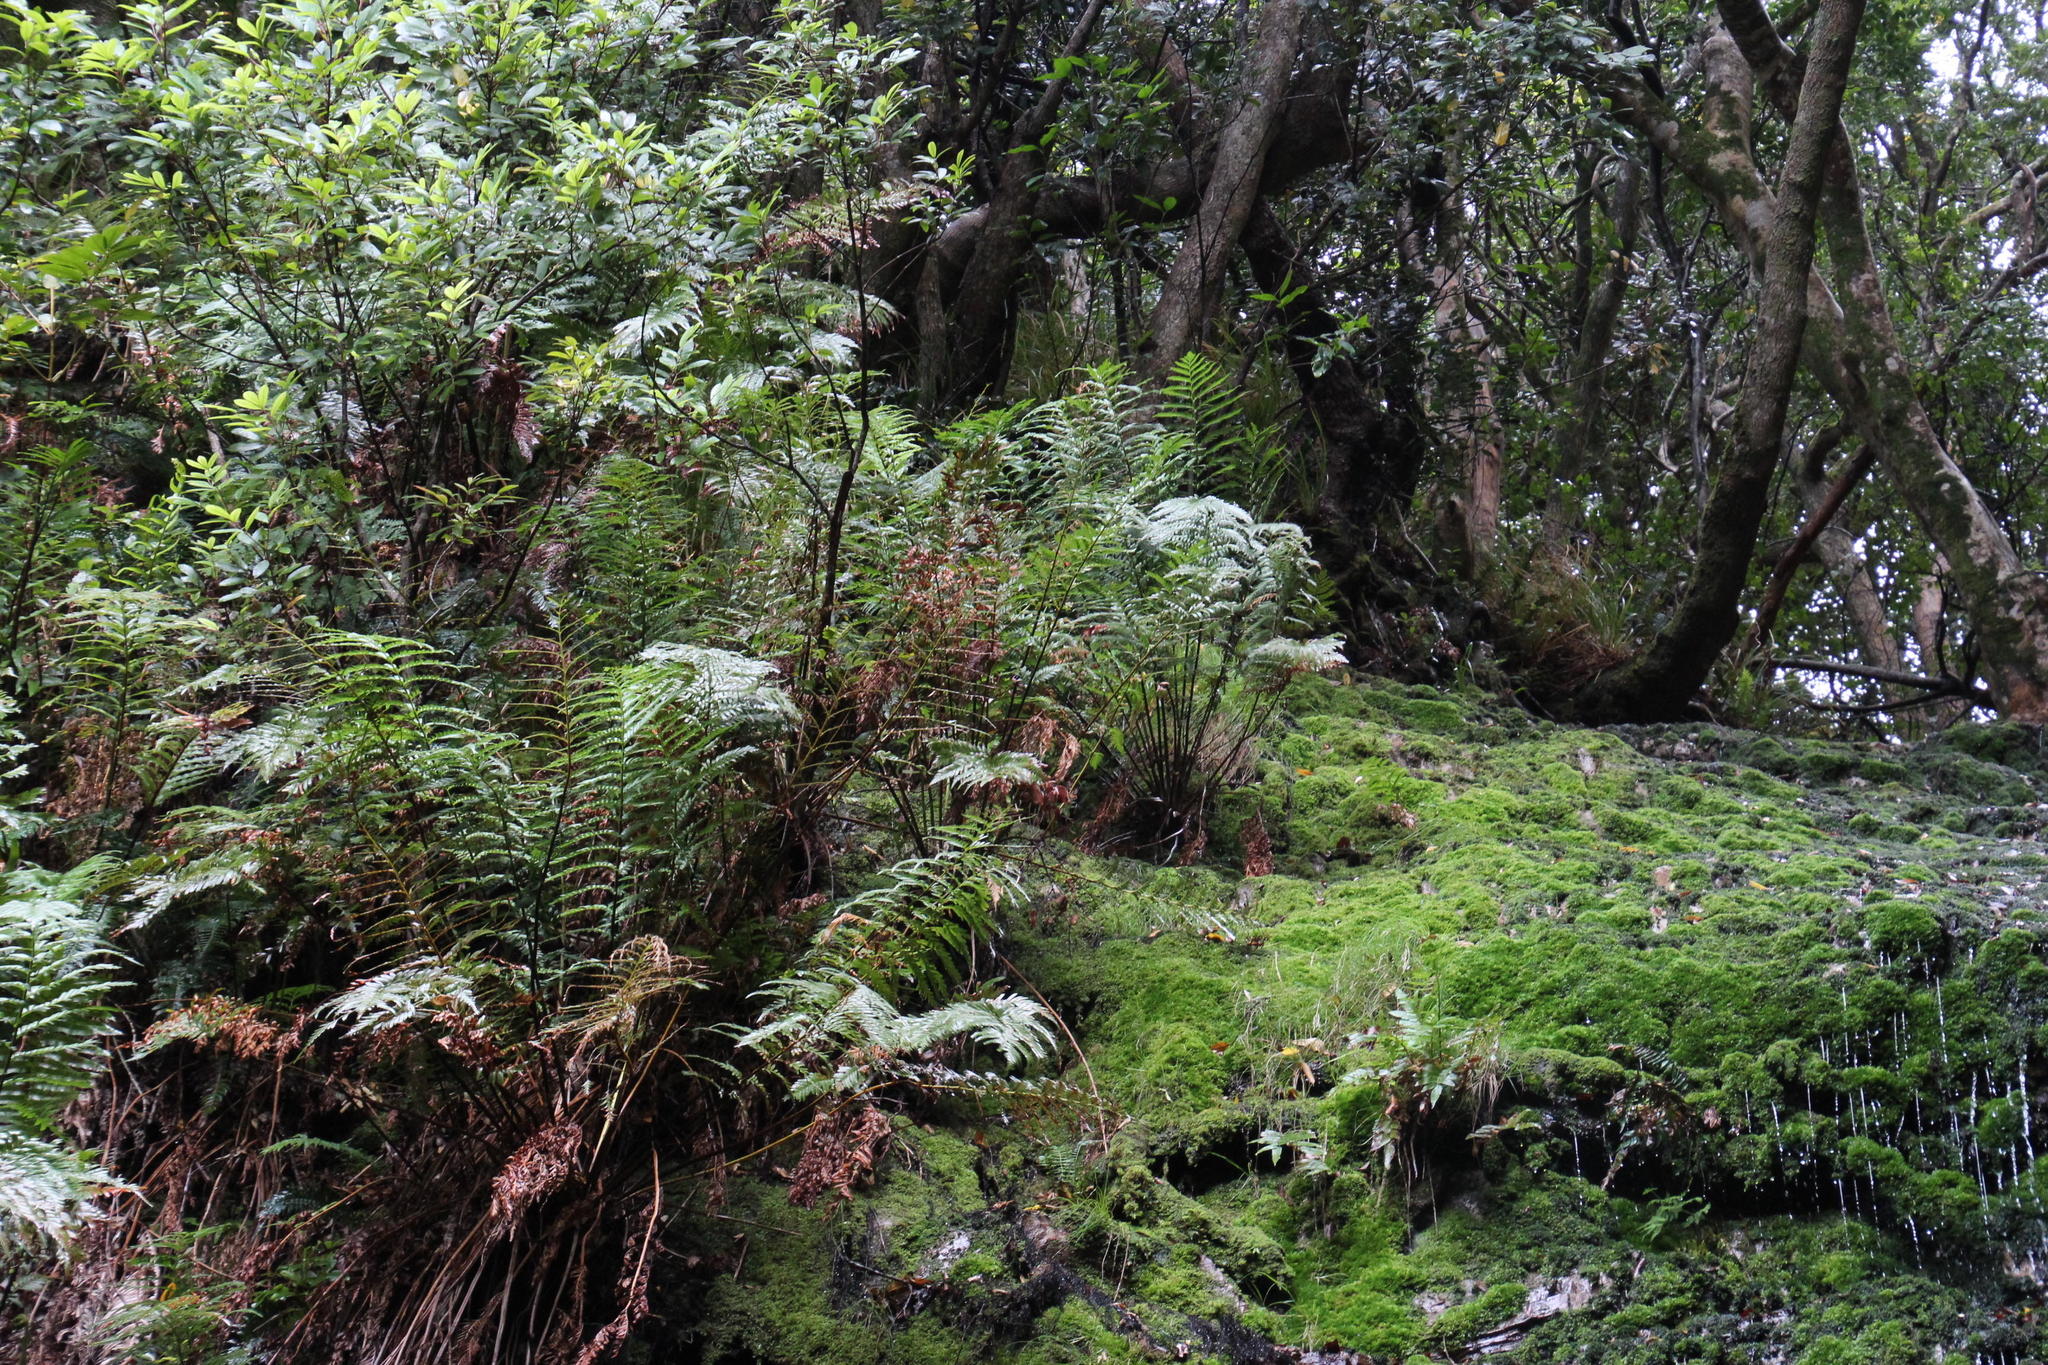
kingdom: Plantae
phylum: Tracheophyta
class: Polypodiopsida
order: Osmundales
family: Osmundaceae
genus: Todea
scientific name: Todea barbara
